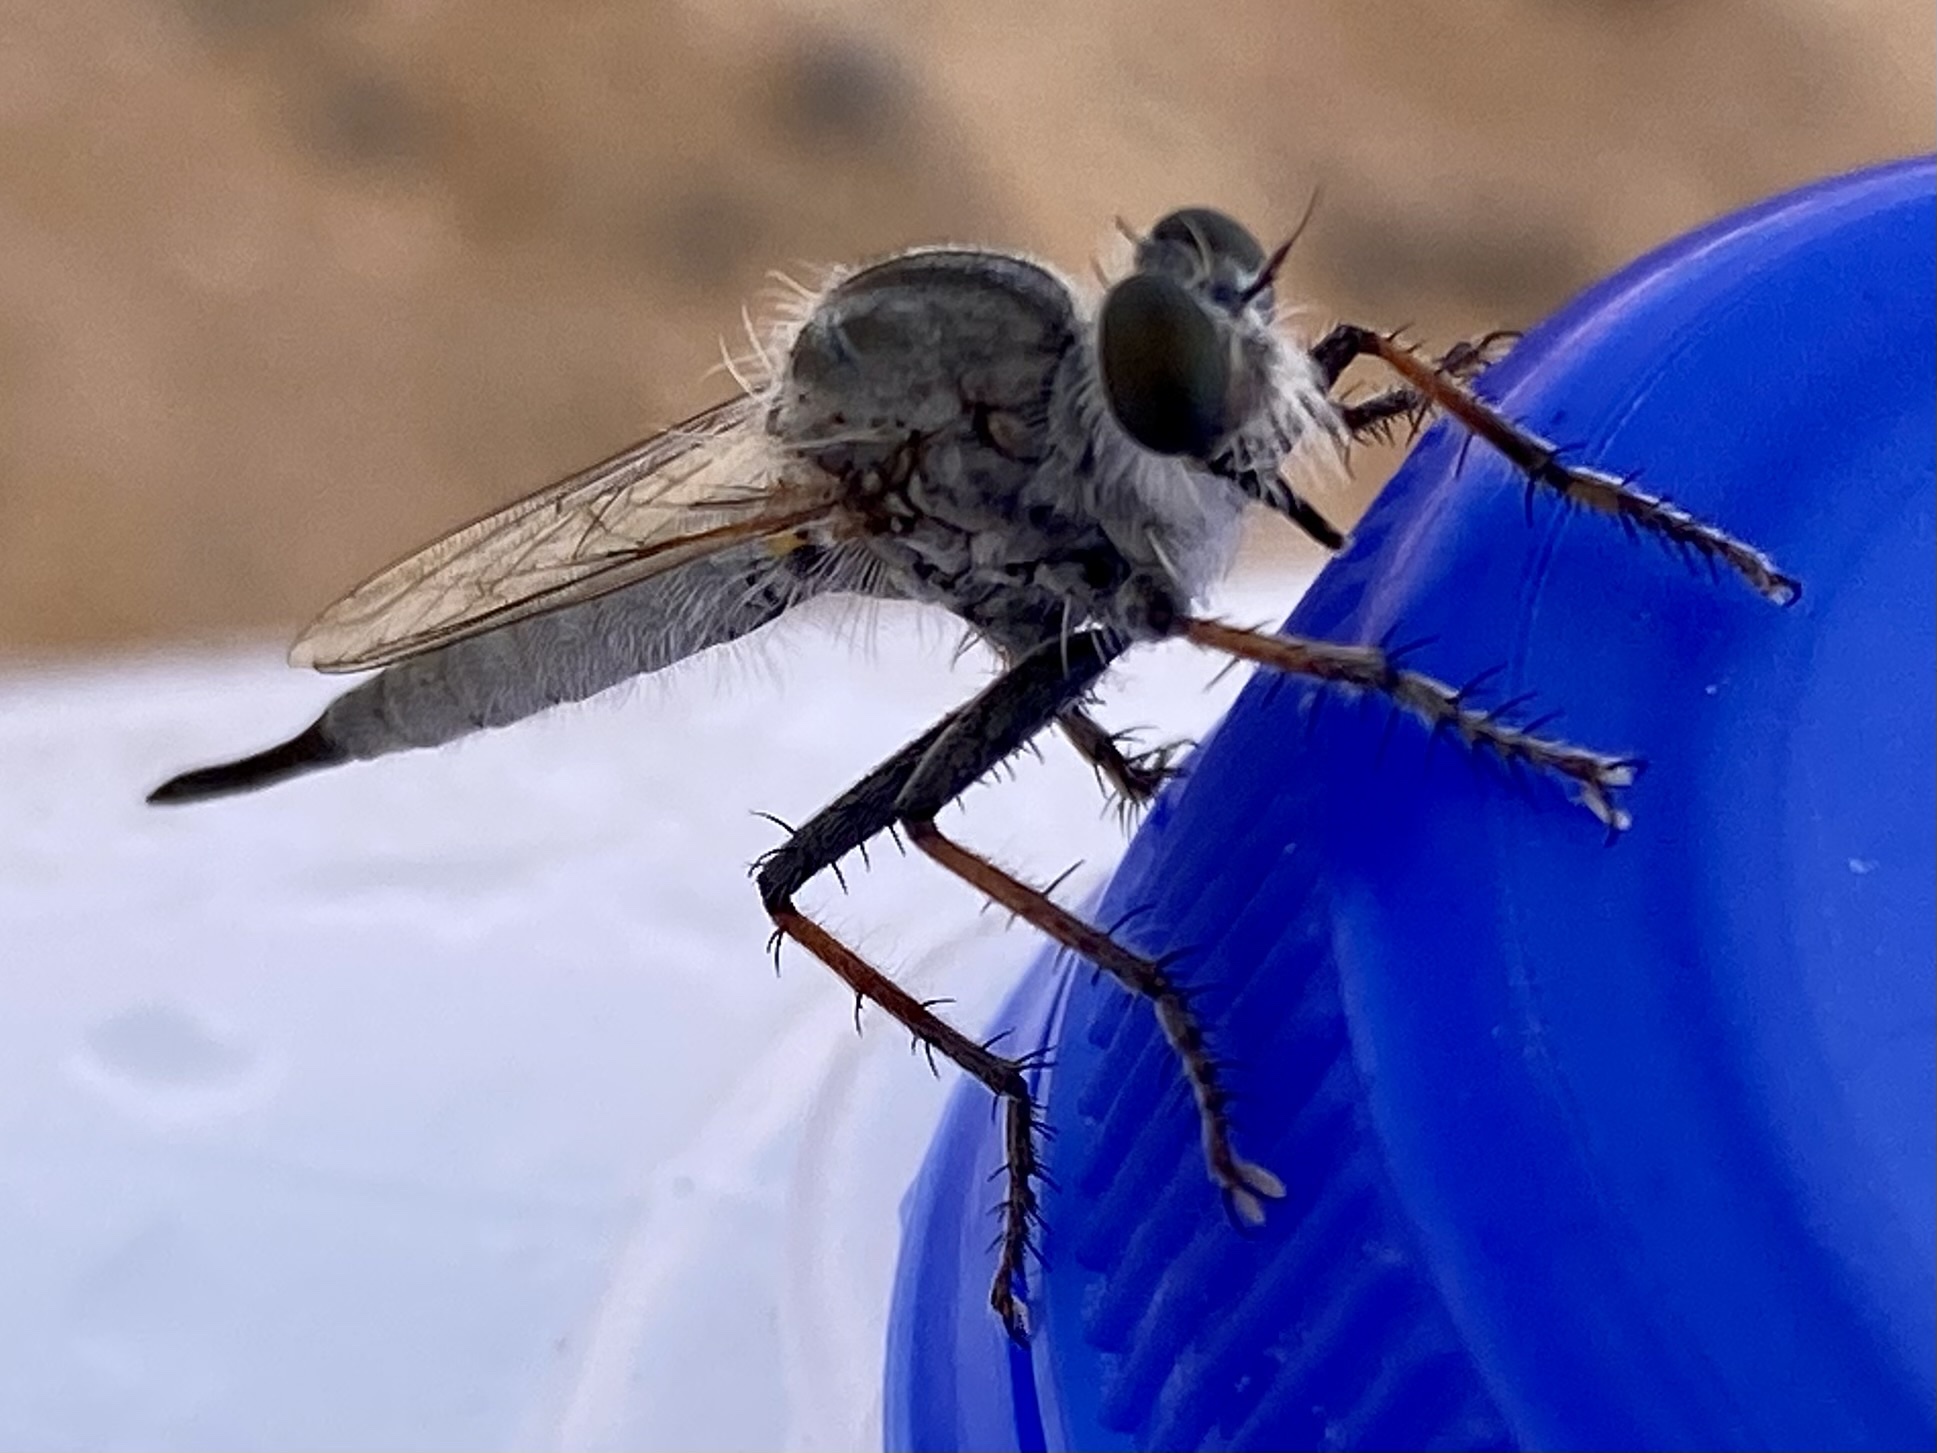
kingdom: Animalia
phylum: Arthropoda
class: Insecta
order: Diptera
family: Asilidae
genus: Efferia
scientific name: Efferia
